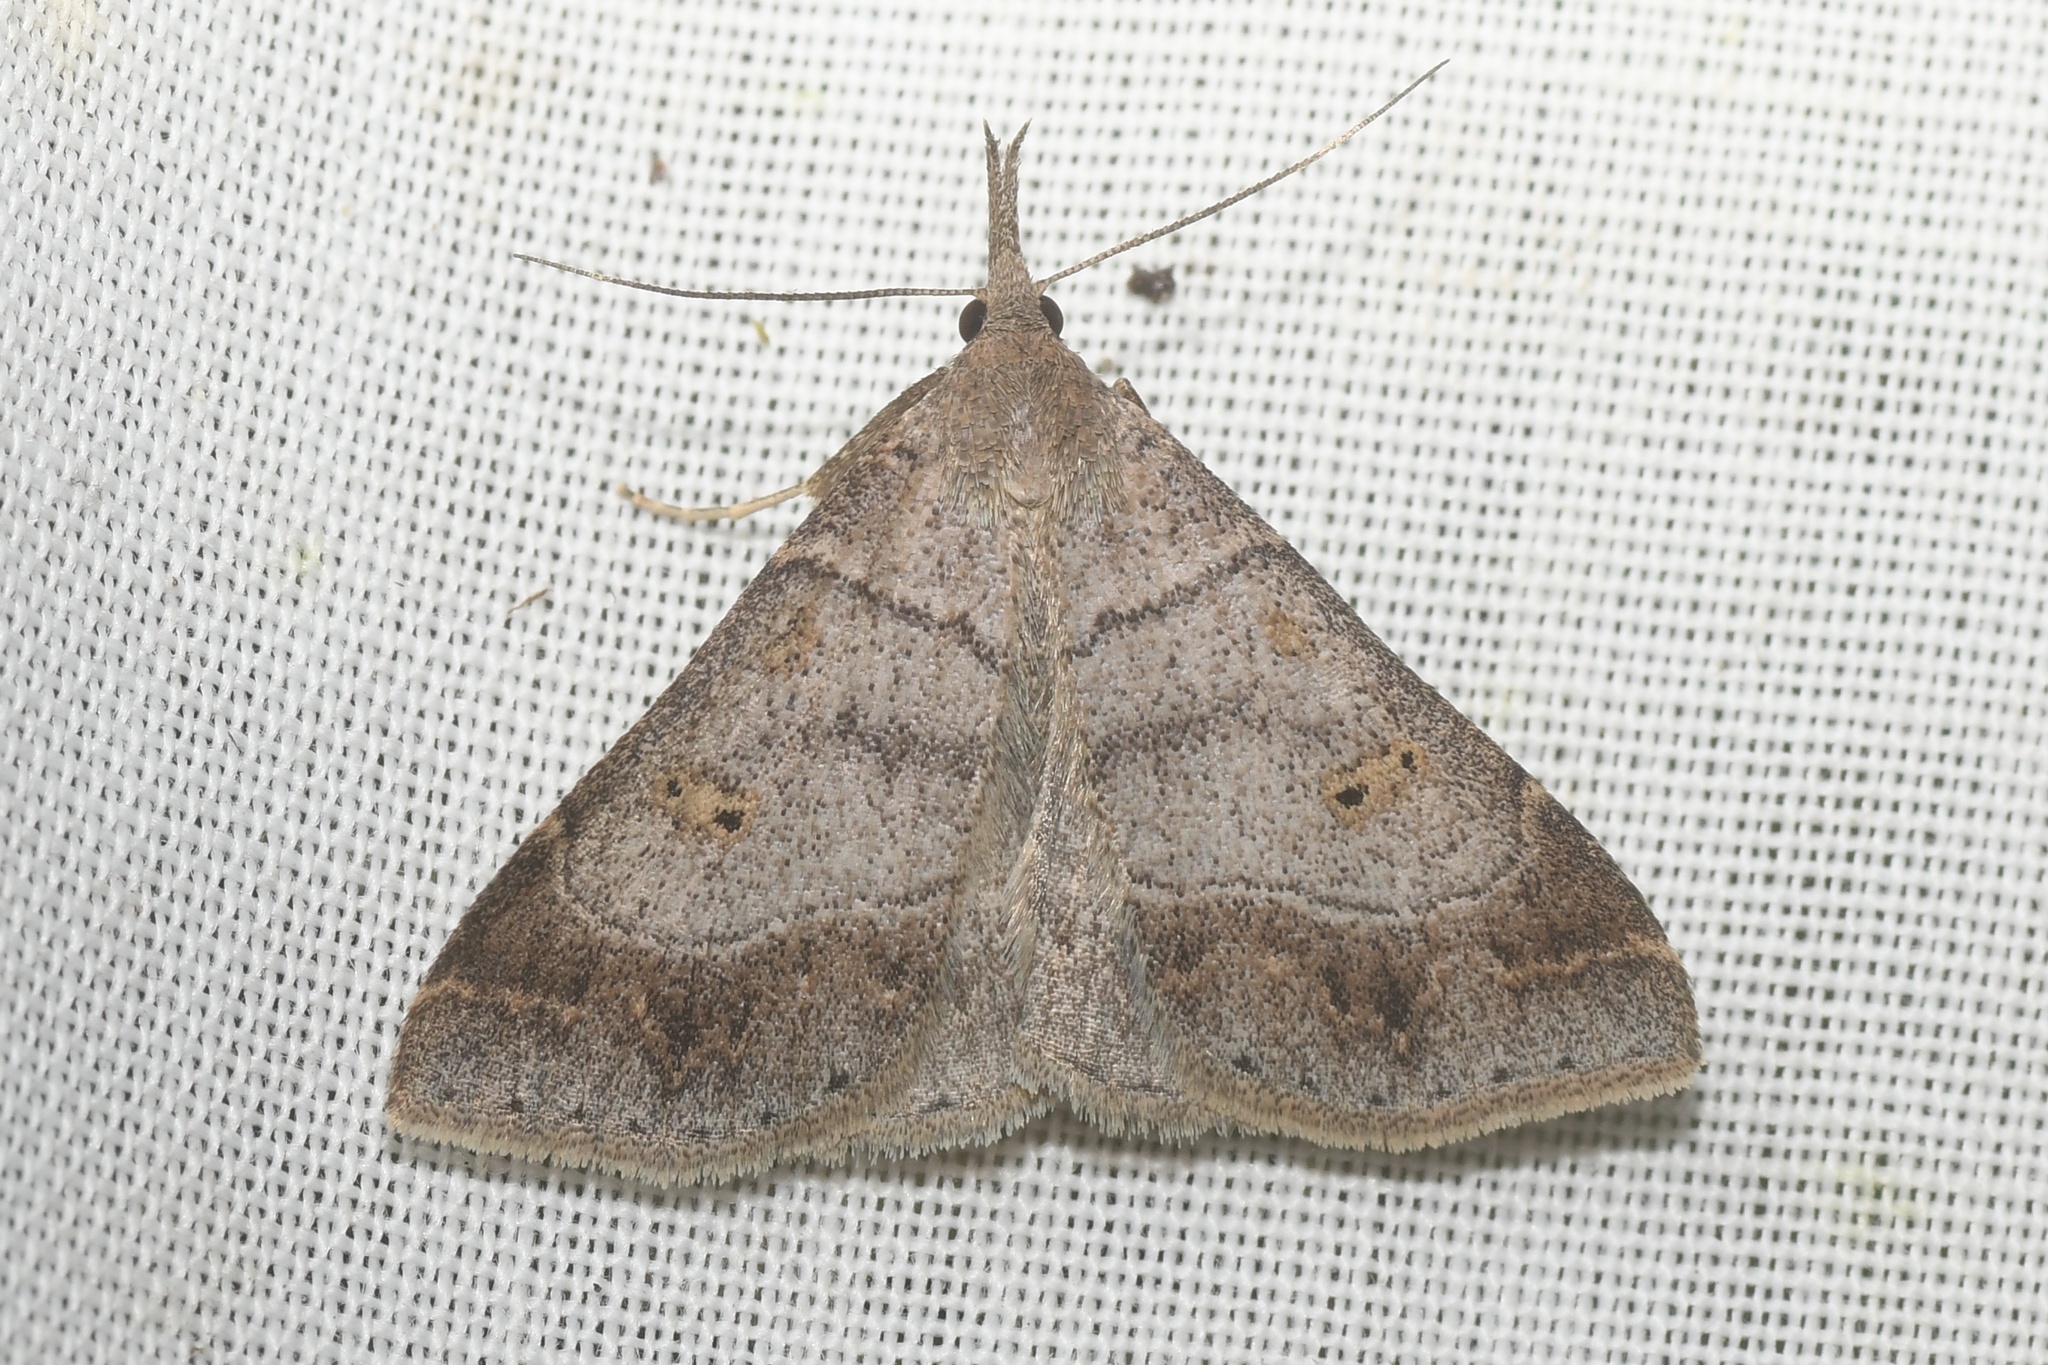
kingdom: Animalia
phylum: Arthropoda
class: Insecta
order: Lepidoptera
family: Erebidae
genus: Renia
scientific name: Renia flavipunctalis
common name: Yellow-spotted renia moth
